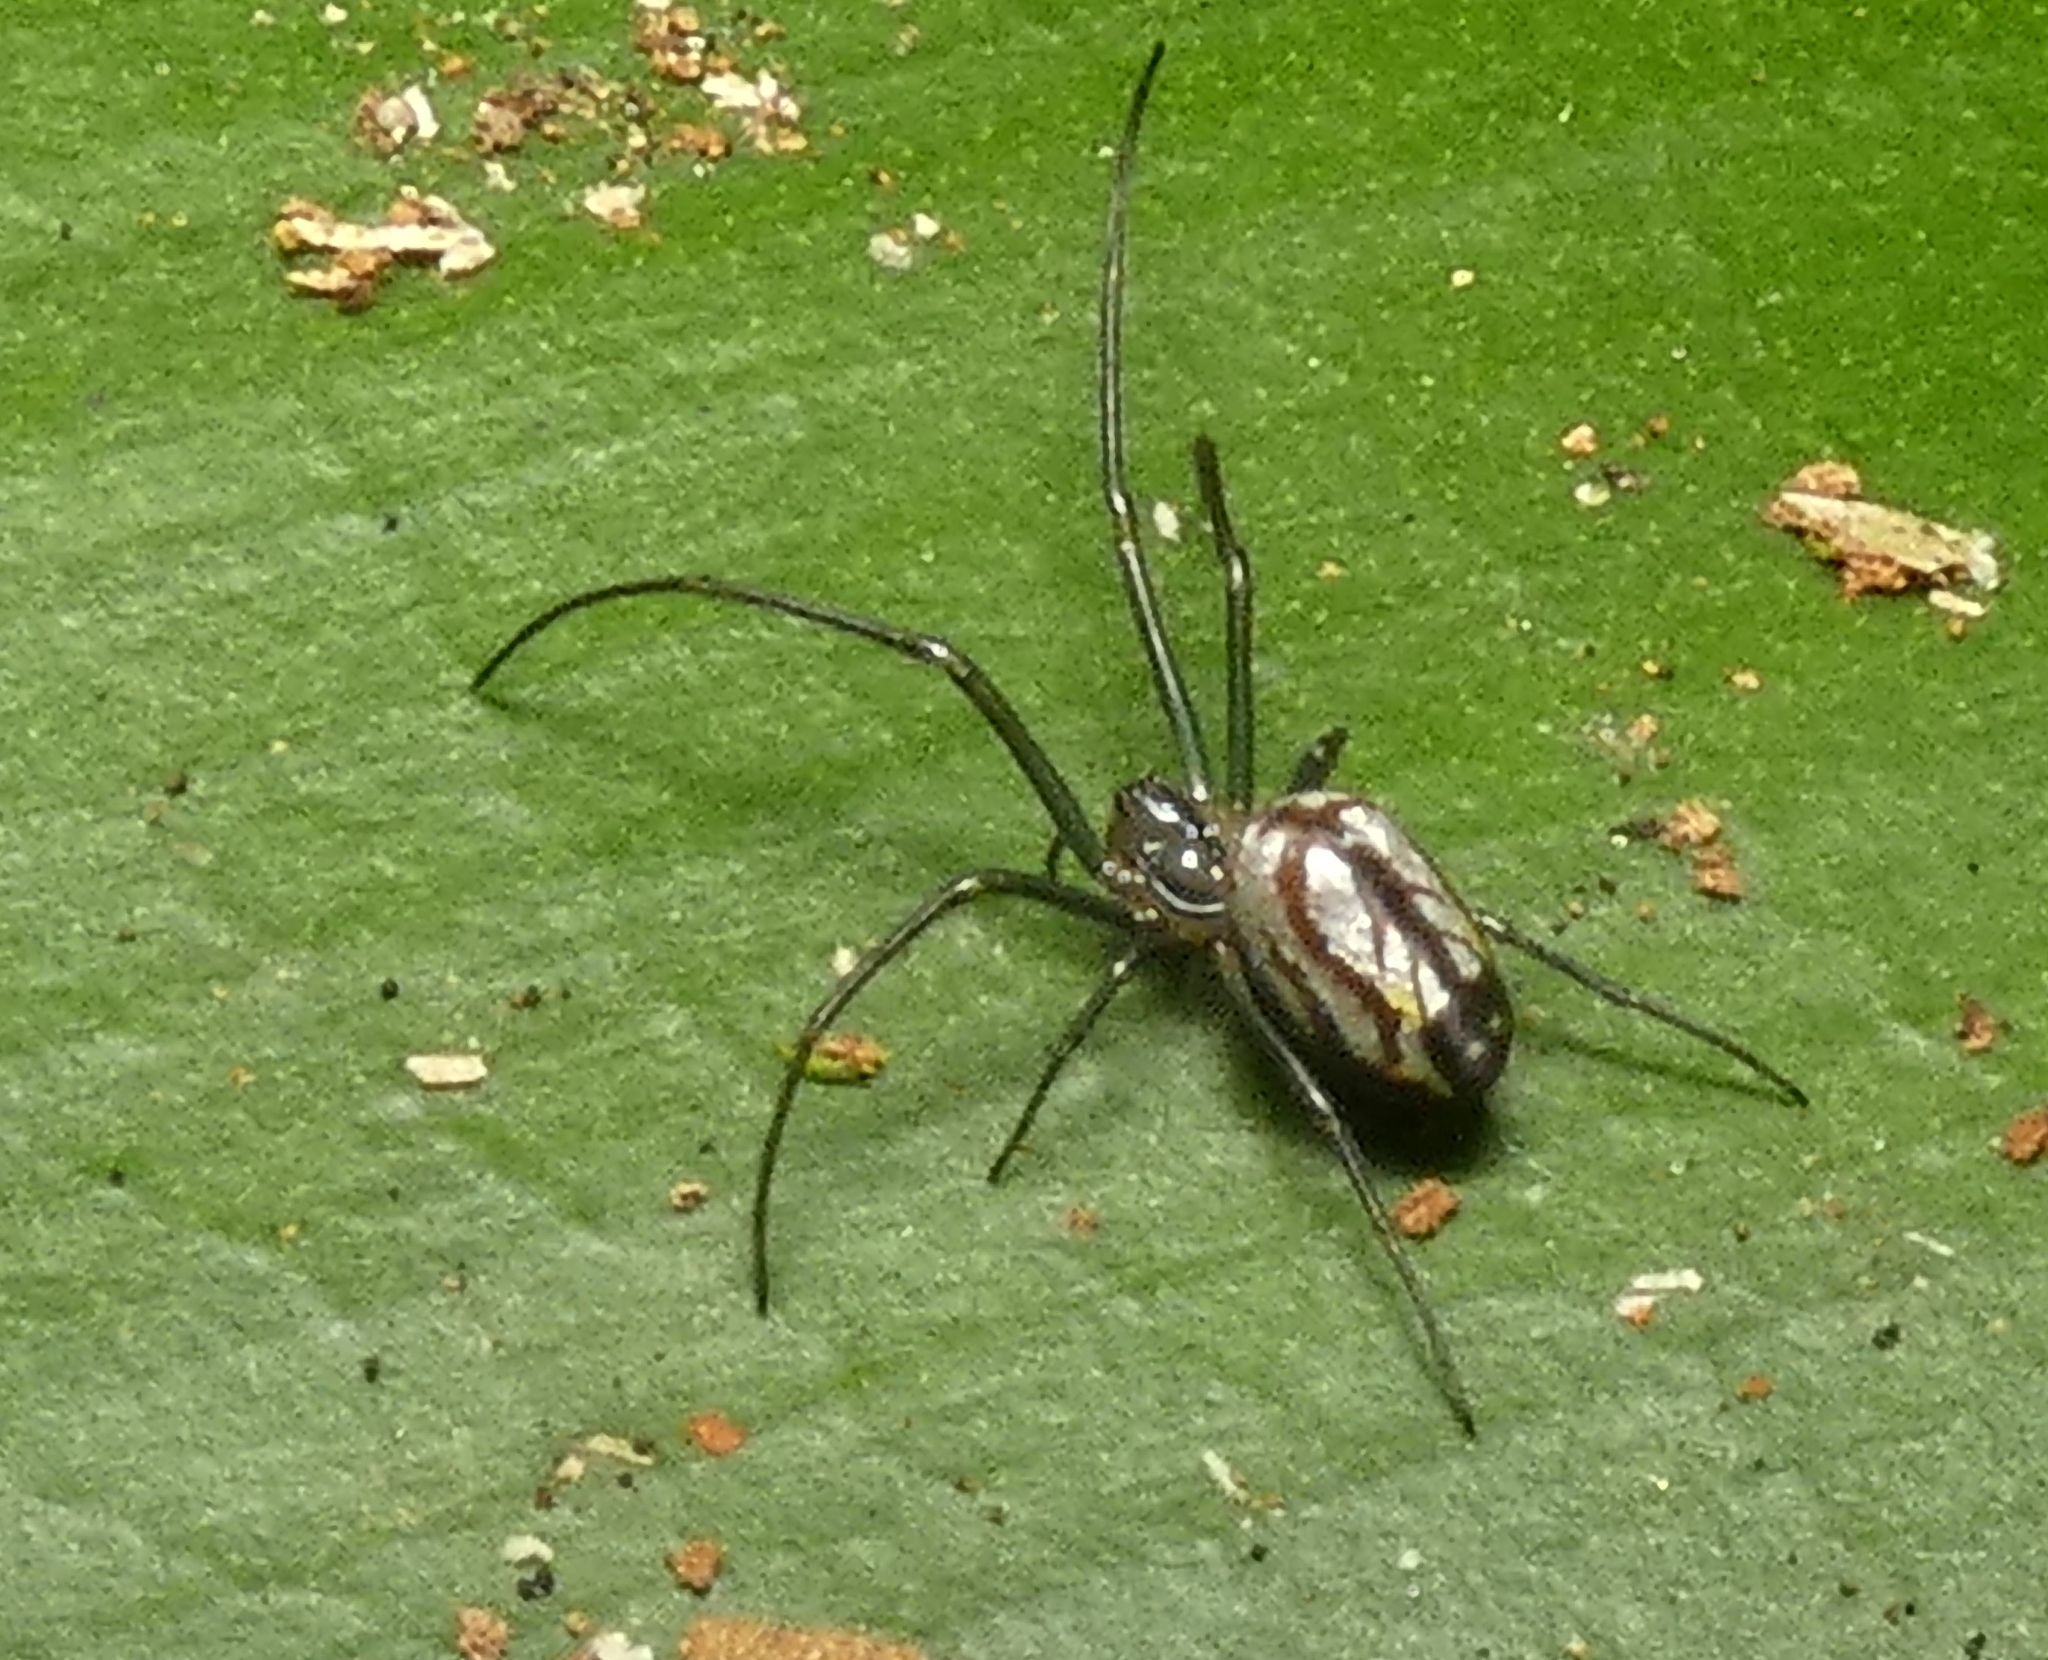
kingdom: Animalia
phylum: Arthropoda
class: Arachnida
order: Araneae
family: Tetragnathidae
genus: Leucauge
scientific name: Leucauge volupis
